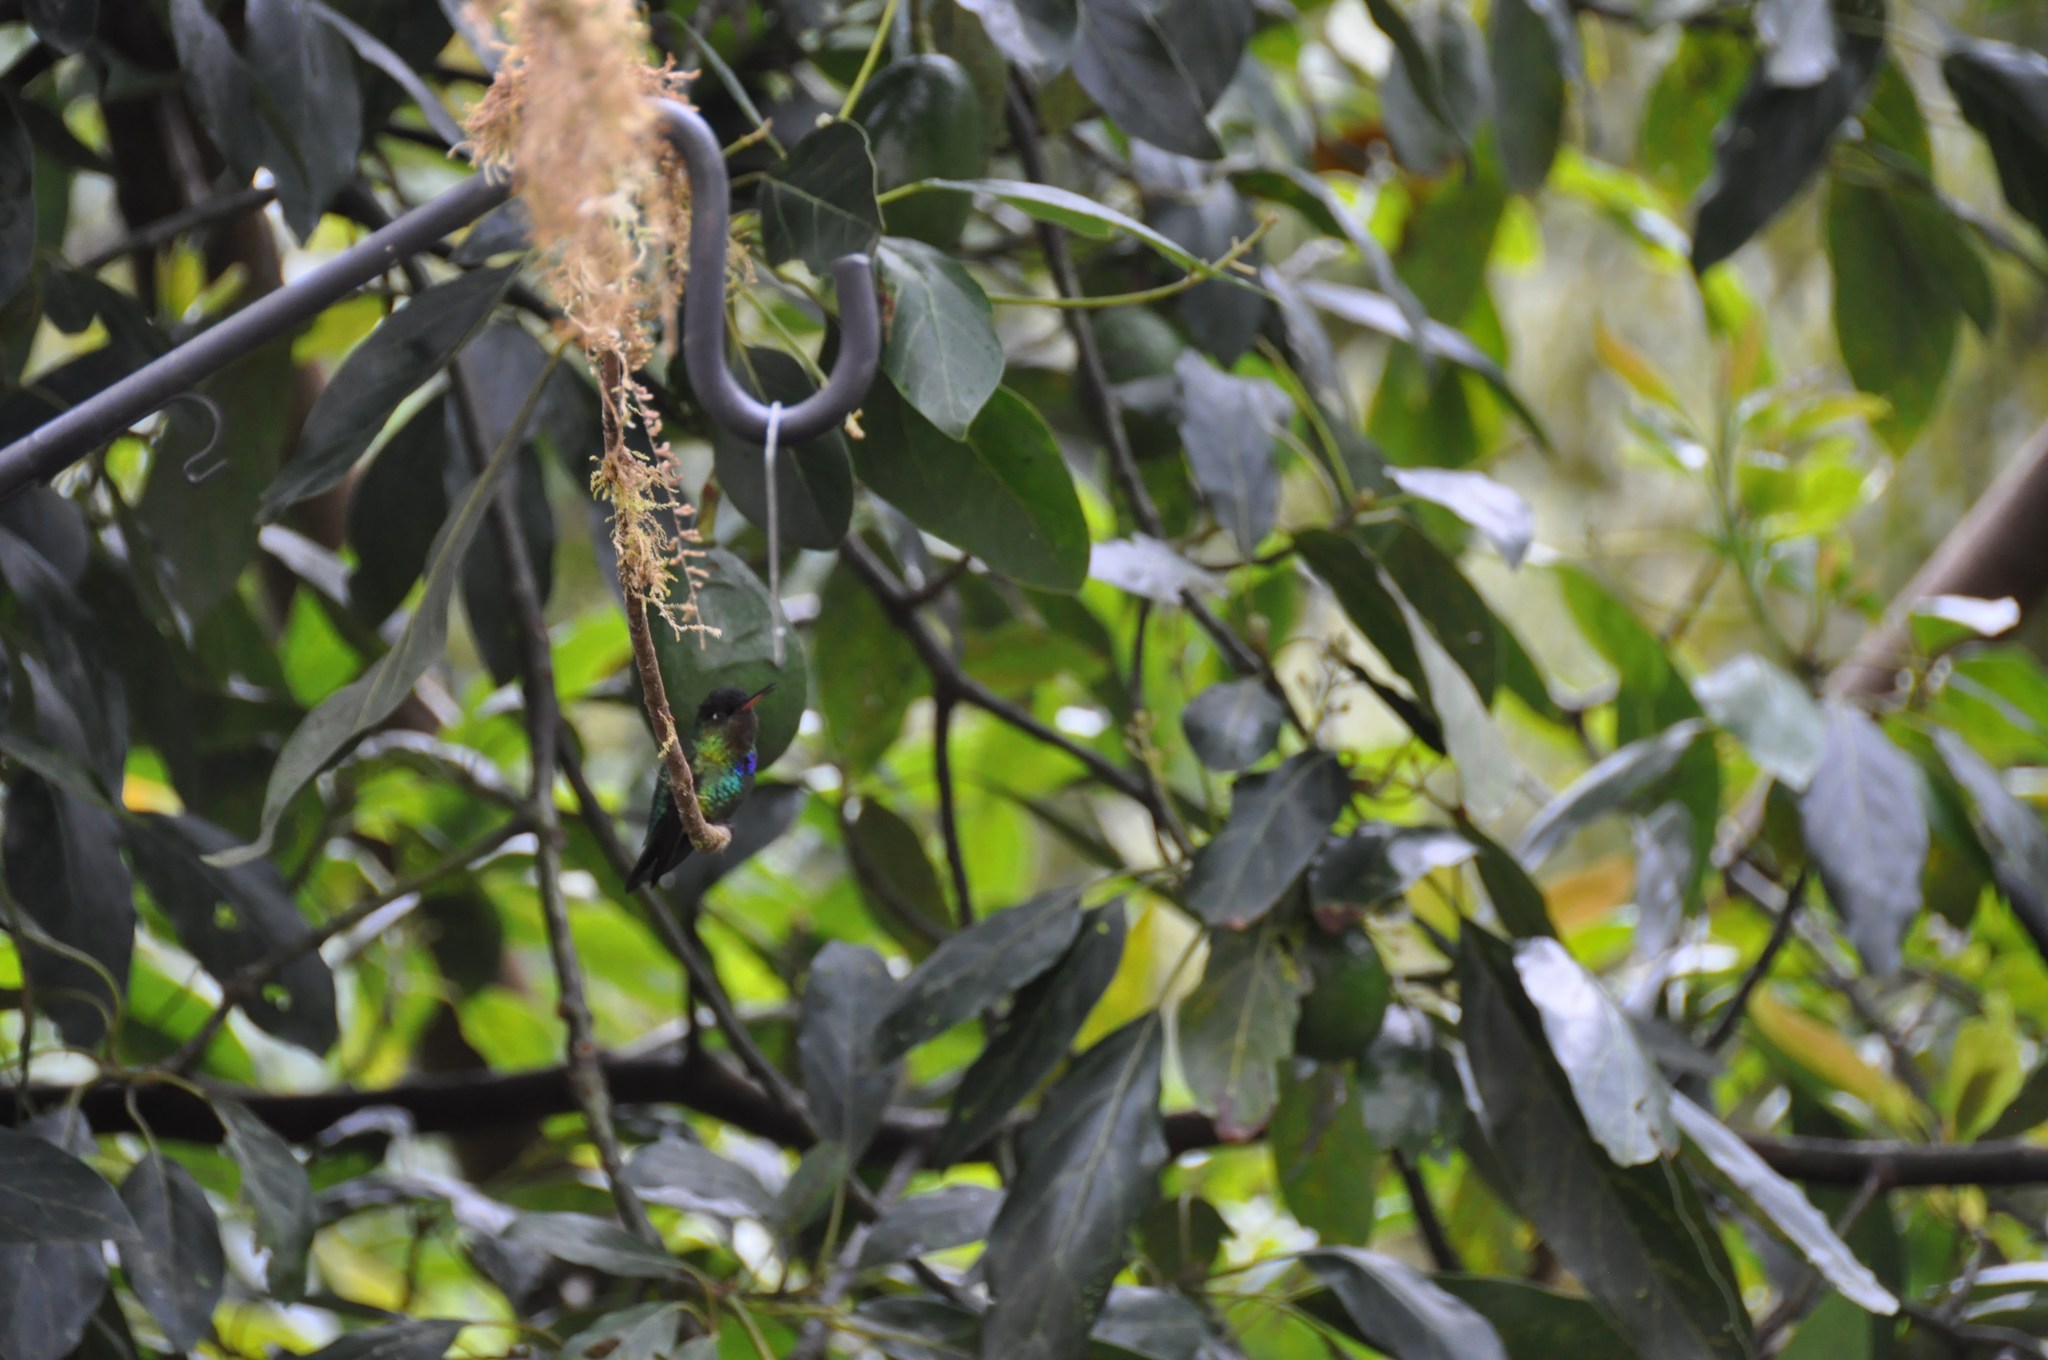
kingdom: Animalia
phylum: Chordata
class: Aves
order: Apodiformes
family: Trochilidae
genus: Panterpe
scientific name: Panterpe insignis
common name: Fiery-throated hummingbird
